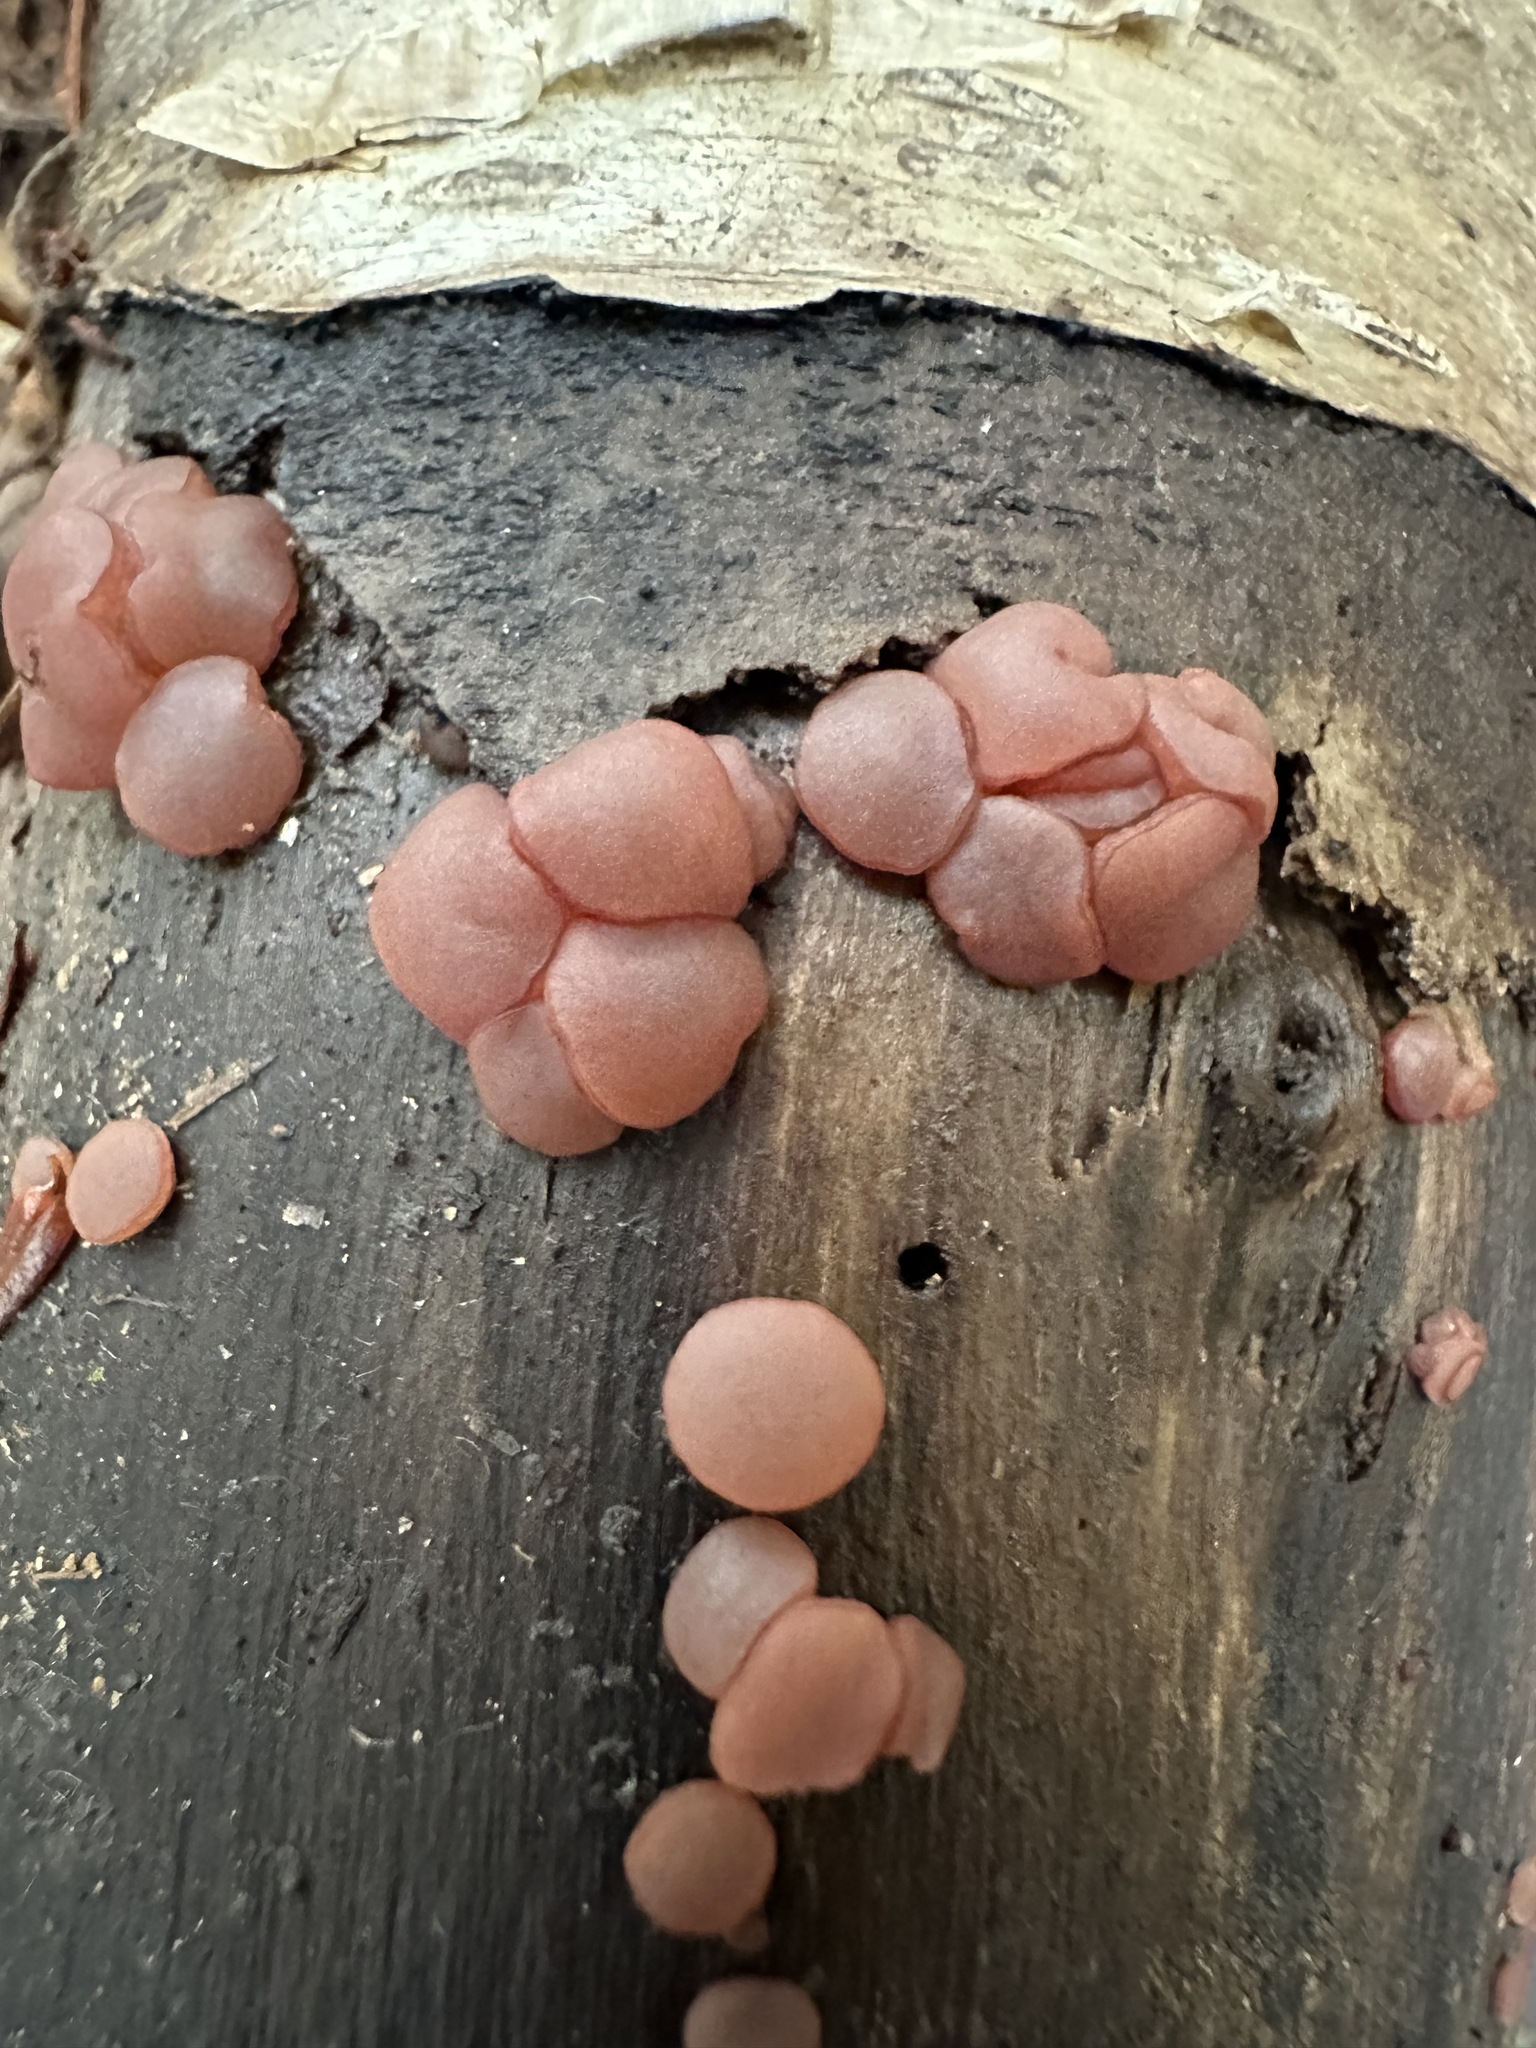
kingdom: Fungi
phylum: Ascomycota
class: Leotiomycetes
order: Helotiales
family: Gelatinodiscaceae
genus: Ascocoryne
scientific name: Ascocoryne sarcoides
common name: Purple jellydisc
